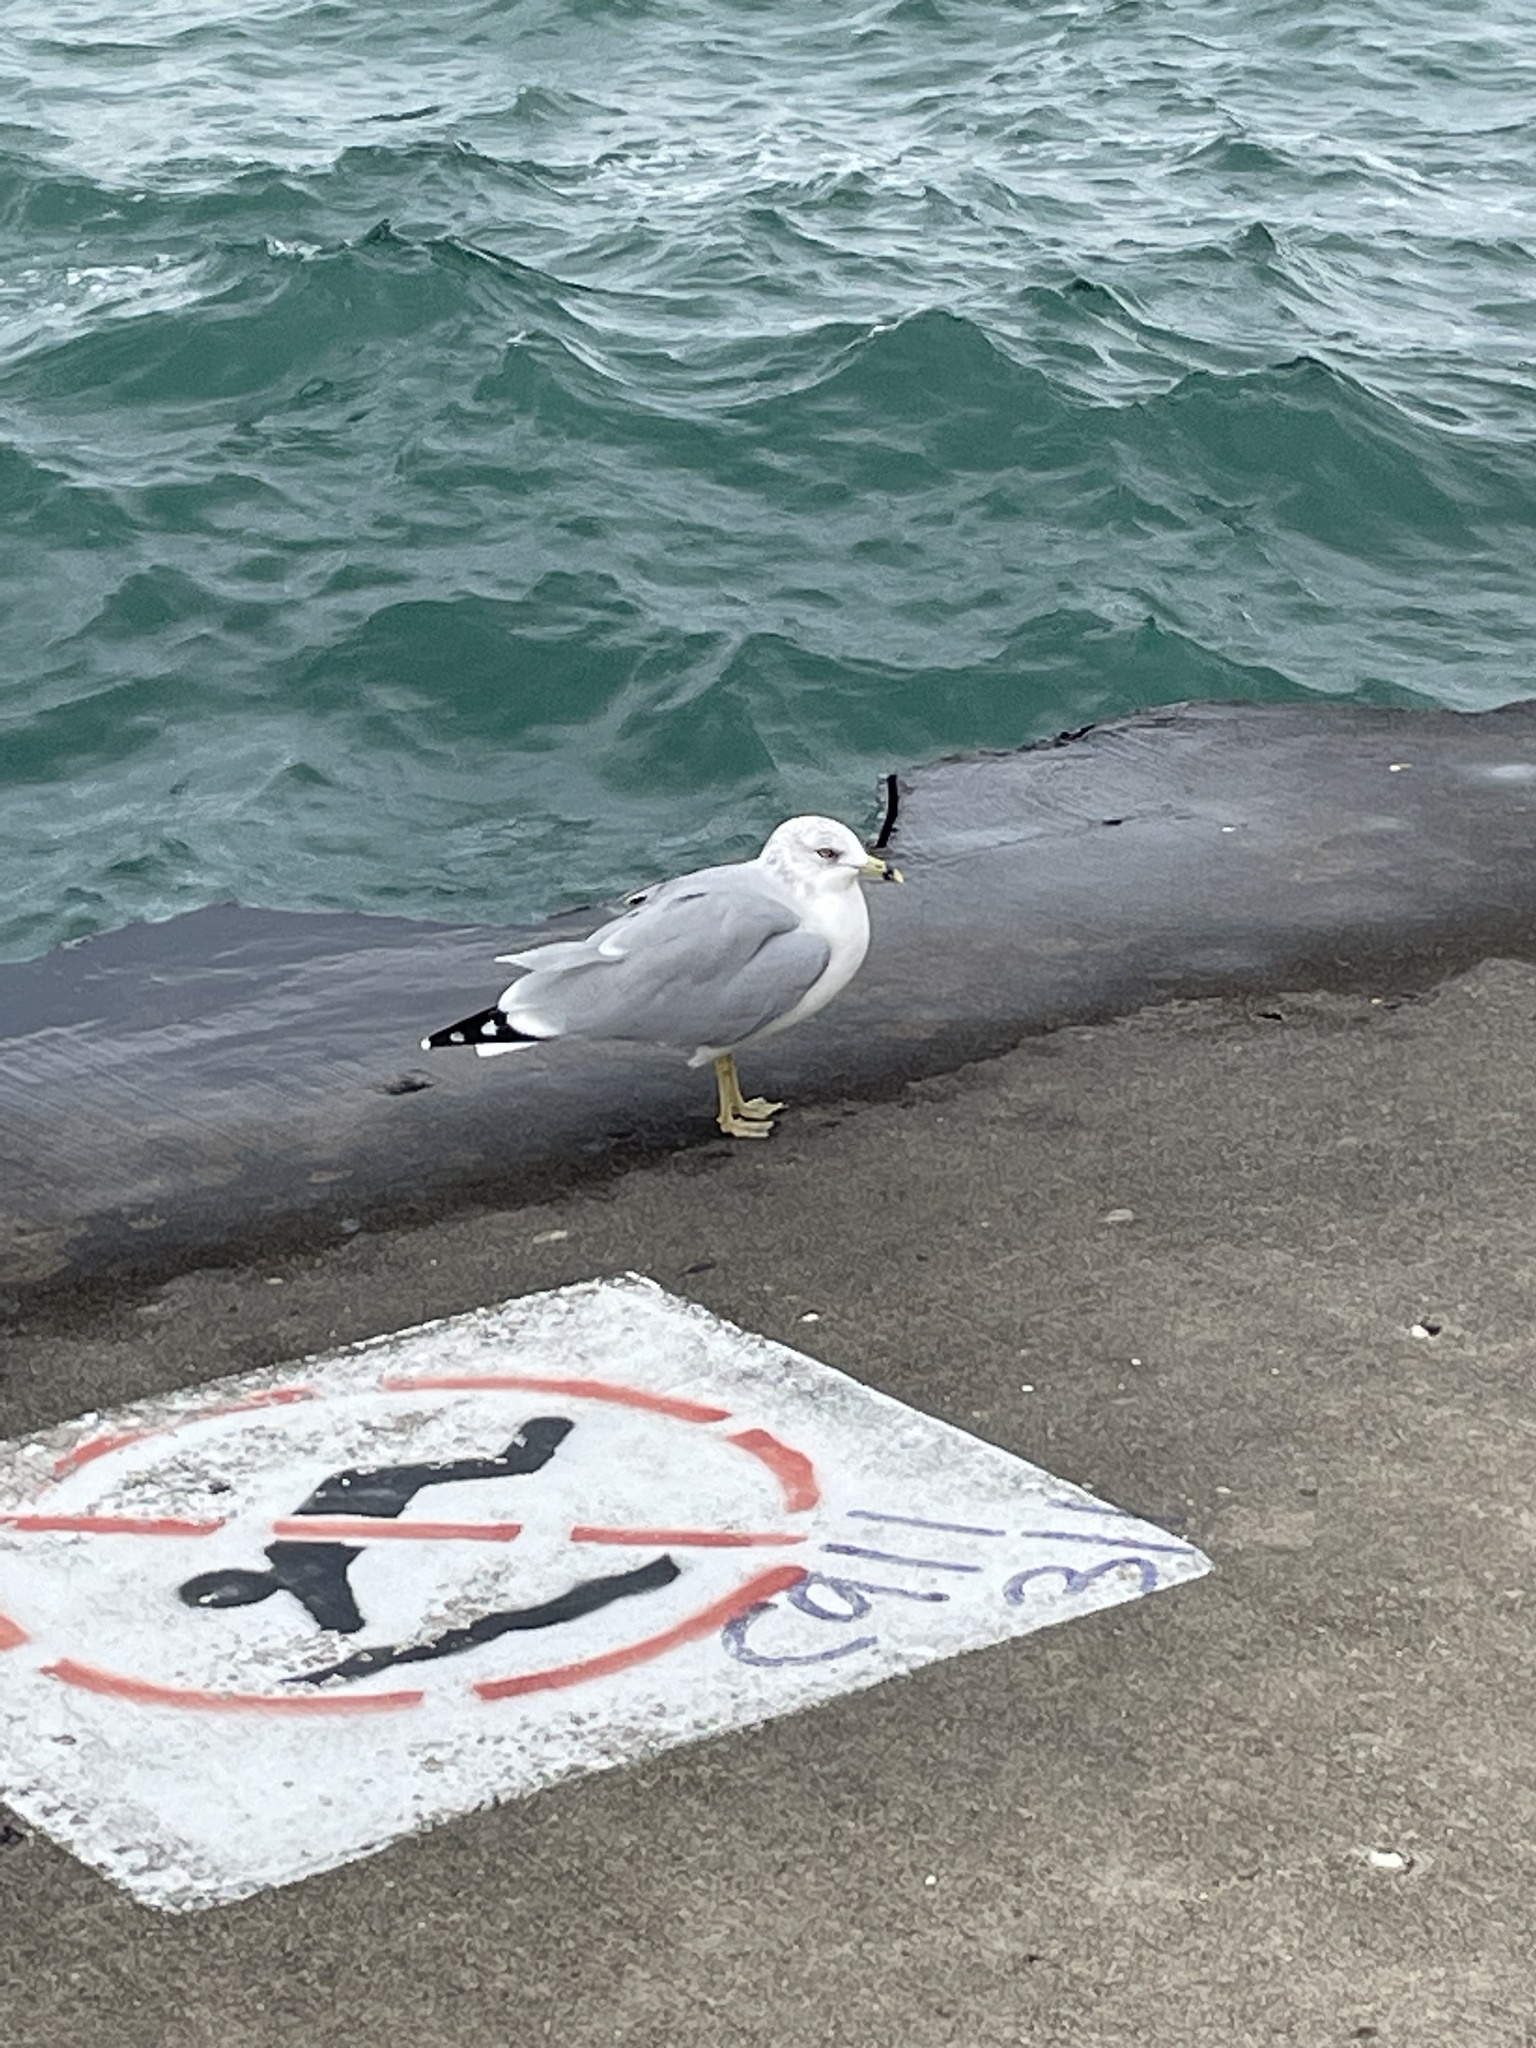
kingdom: Animalia
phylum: Chordata
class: Aves
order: Charadriiformes
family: Laridae
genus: Larus
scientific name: Larus delawarensis
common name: Ring-billed gull
